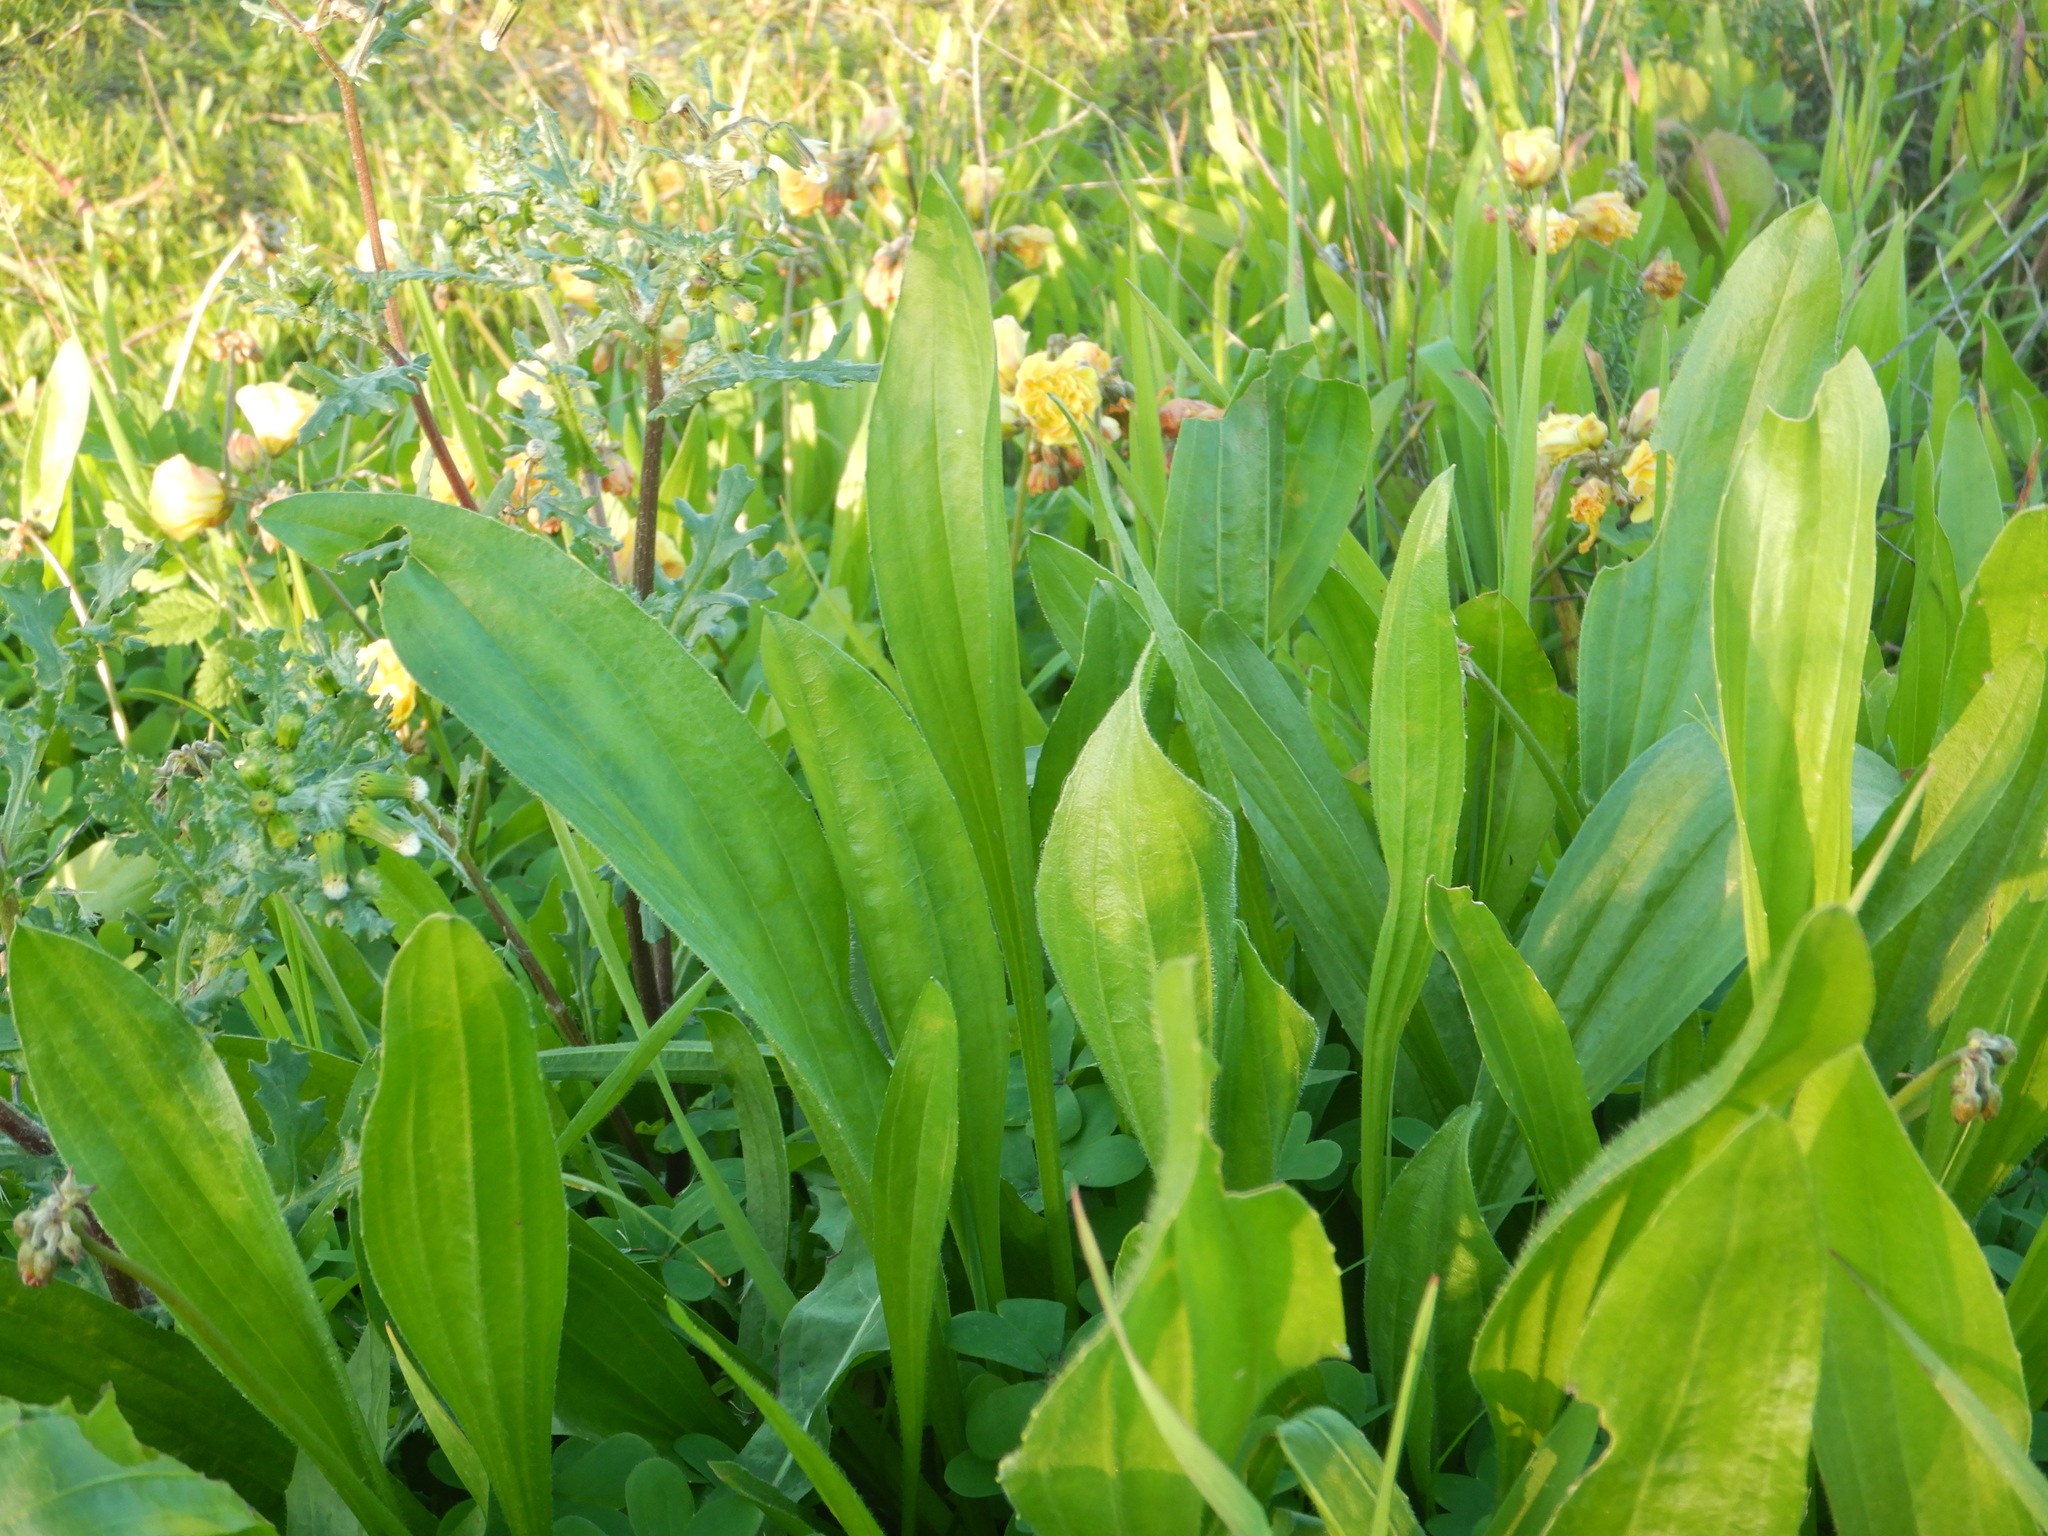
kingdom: Plantae
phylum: Tracheophyta
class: Magnoliopsida
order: Lamiales
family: Plantaginaceae
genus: Plantago
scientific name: Plantago lanceolata
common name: Ribwort plantain
